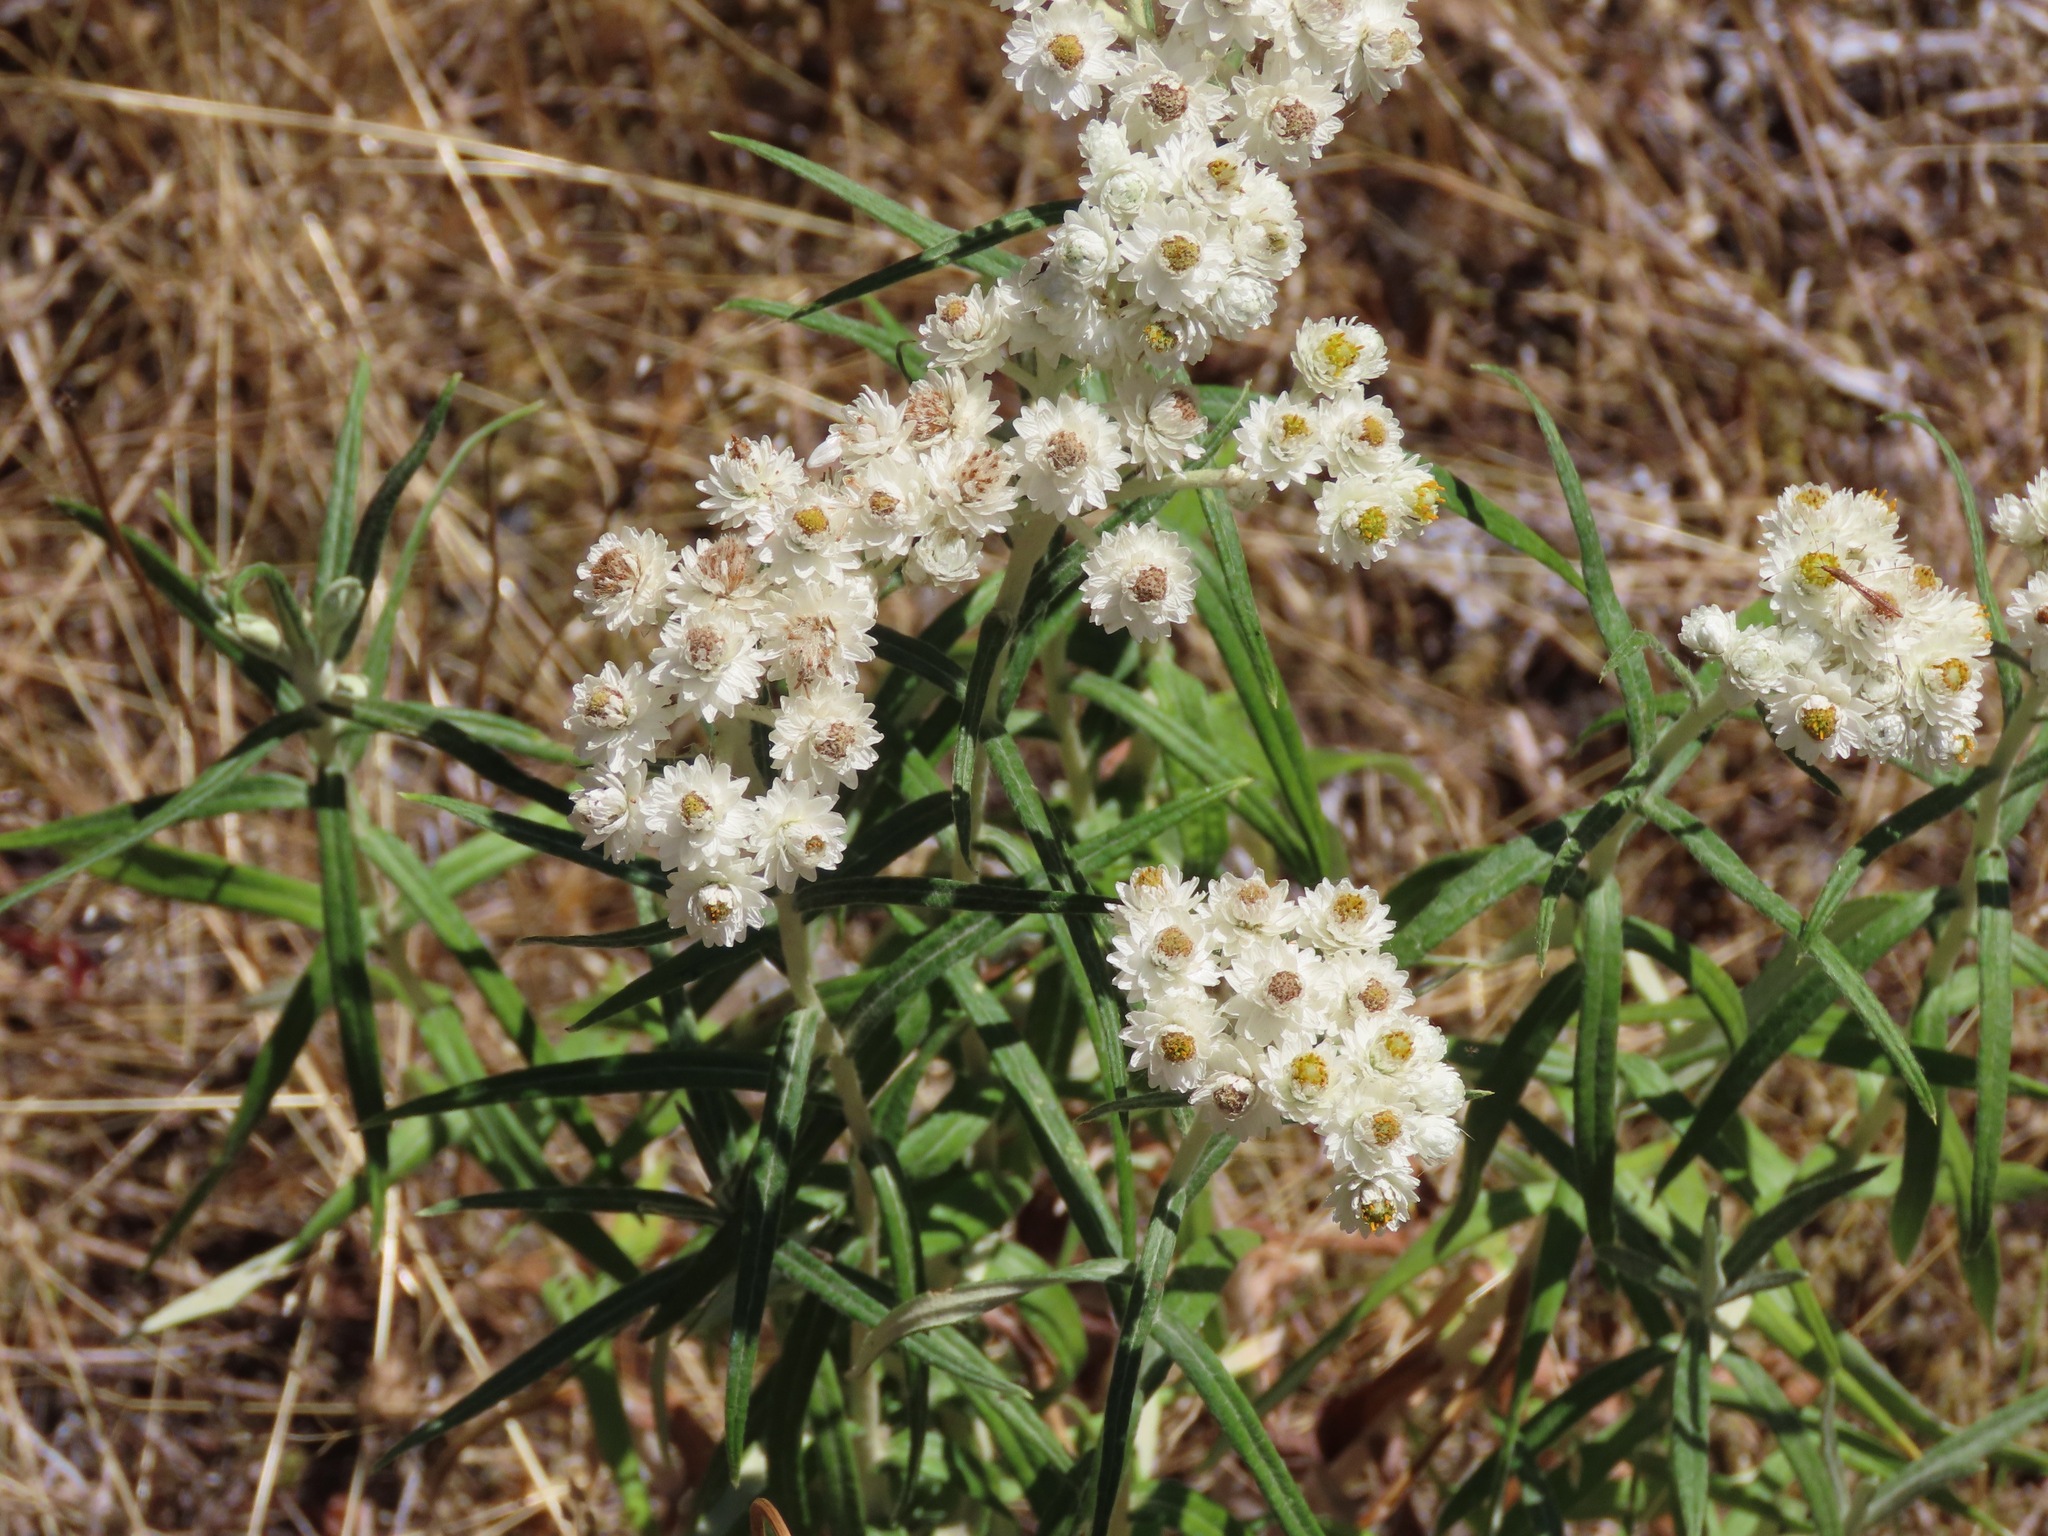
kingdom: Plantae
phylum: Tracheophyta
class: Magnoliopsida
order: Asterales
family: Asteraceae
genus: Anaphalis
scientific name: Anaphalis margaritacea
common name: Pearly everlasting
